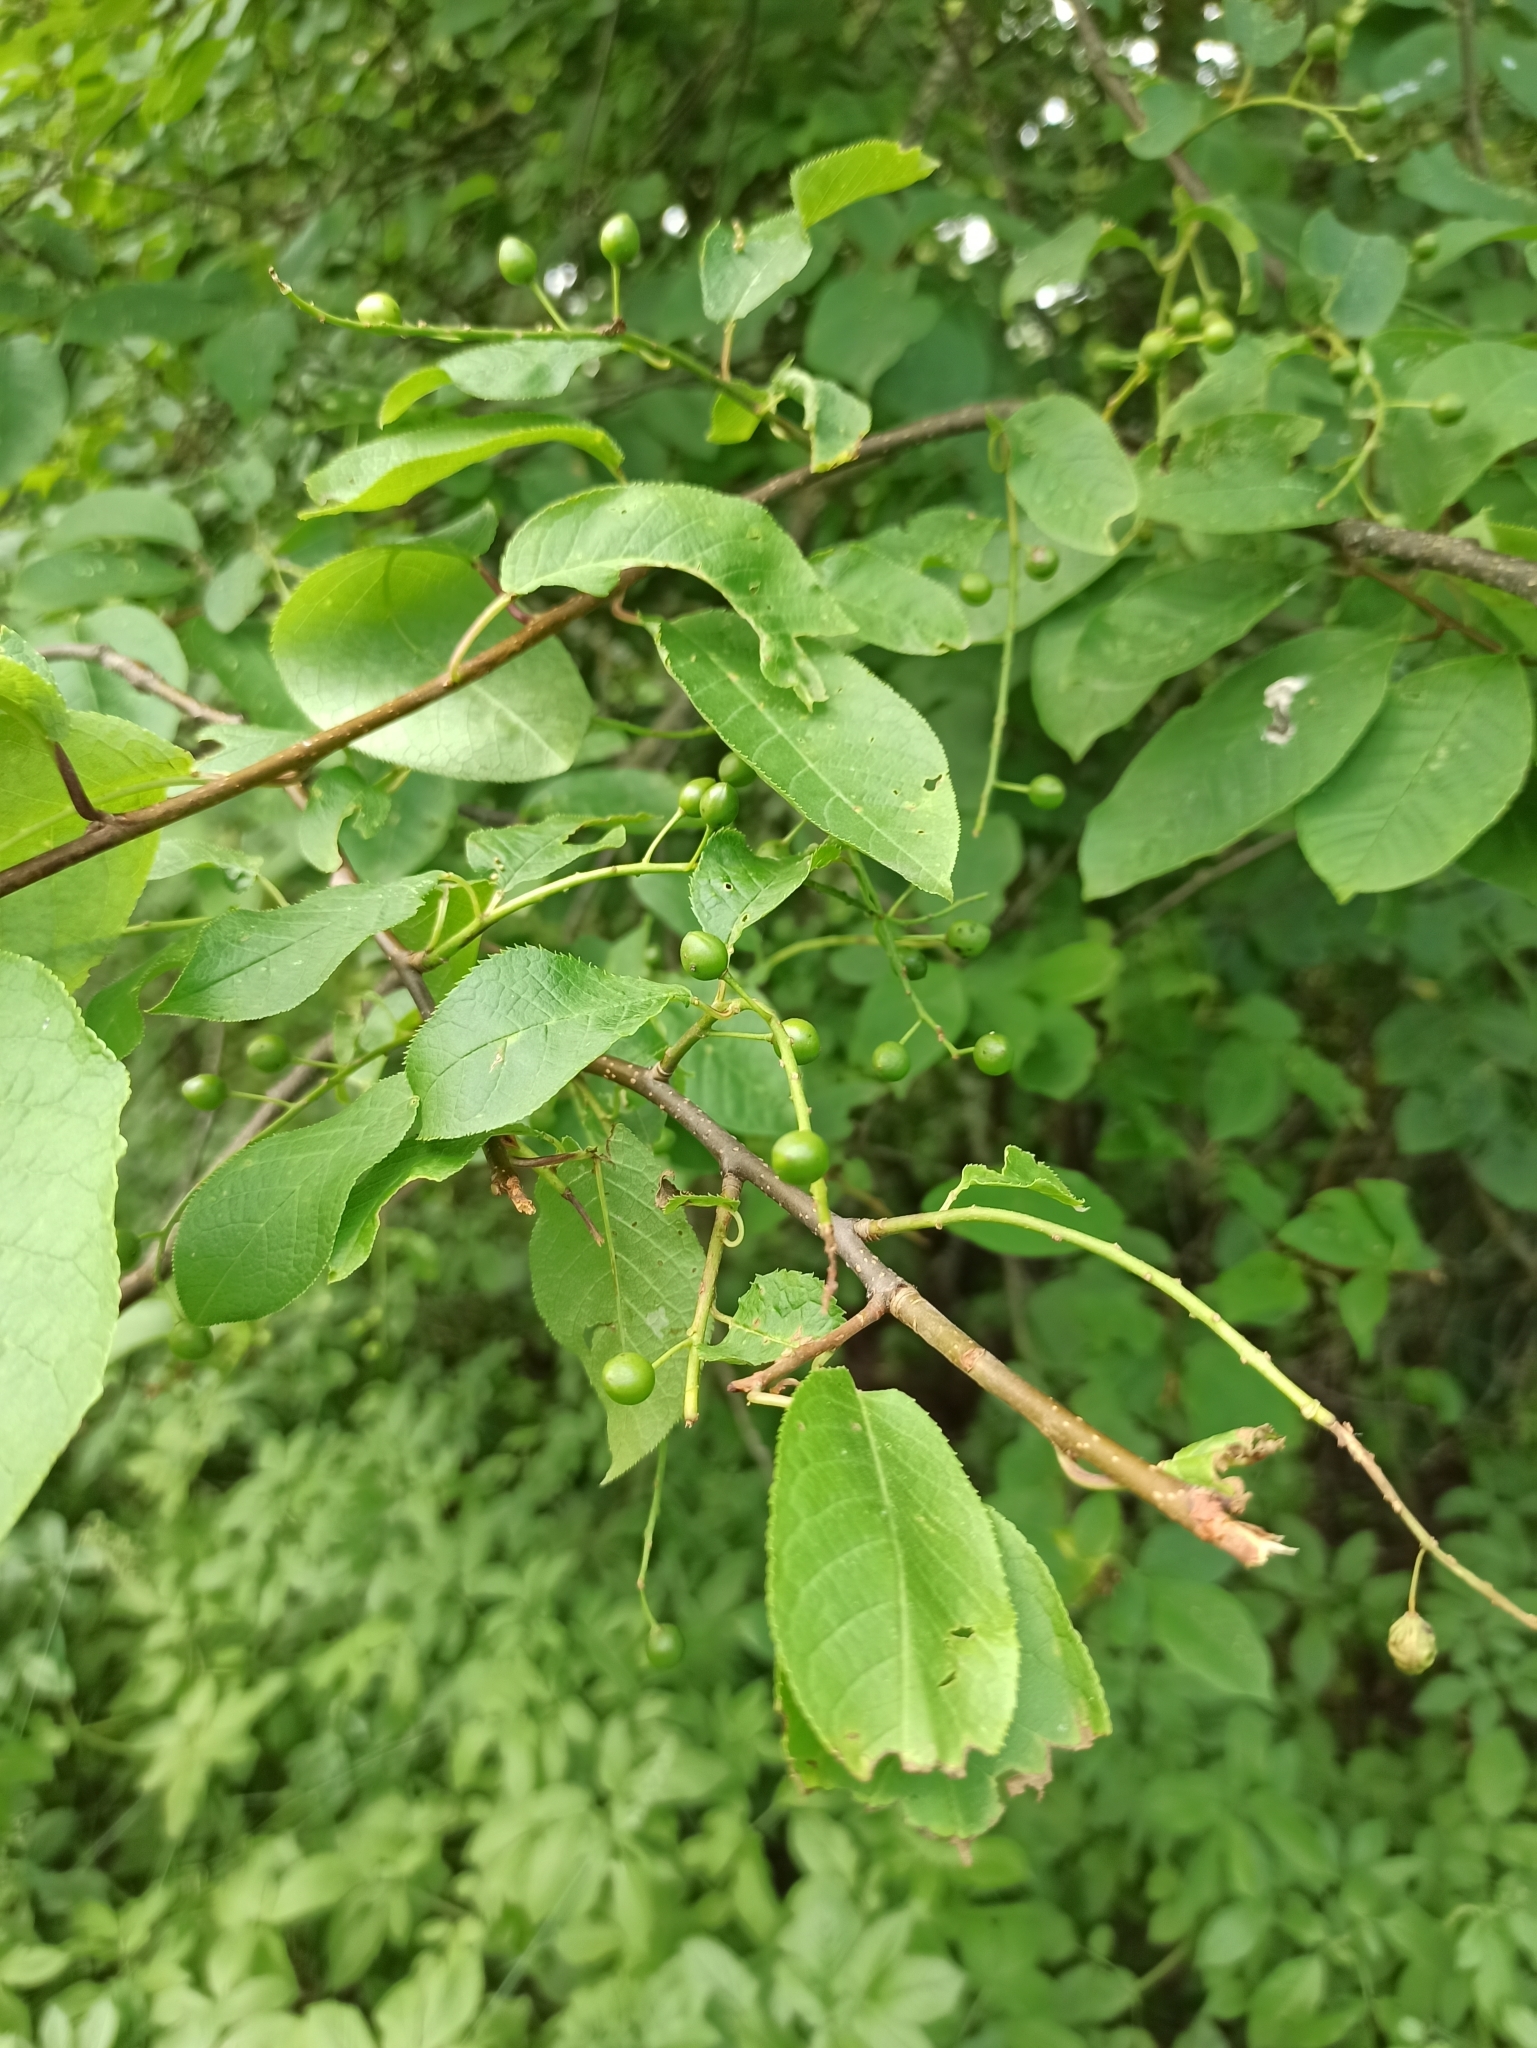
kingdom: Plantae
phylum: Tracheophyta
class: Magnoliopsida
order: Rosales
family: Rosaceae
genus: Prunus
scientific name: Prunus padus
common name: Bird cherry
